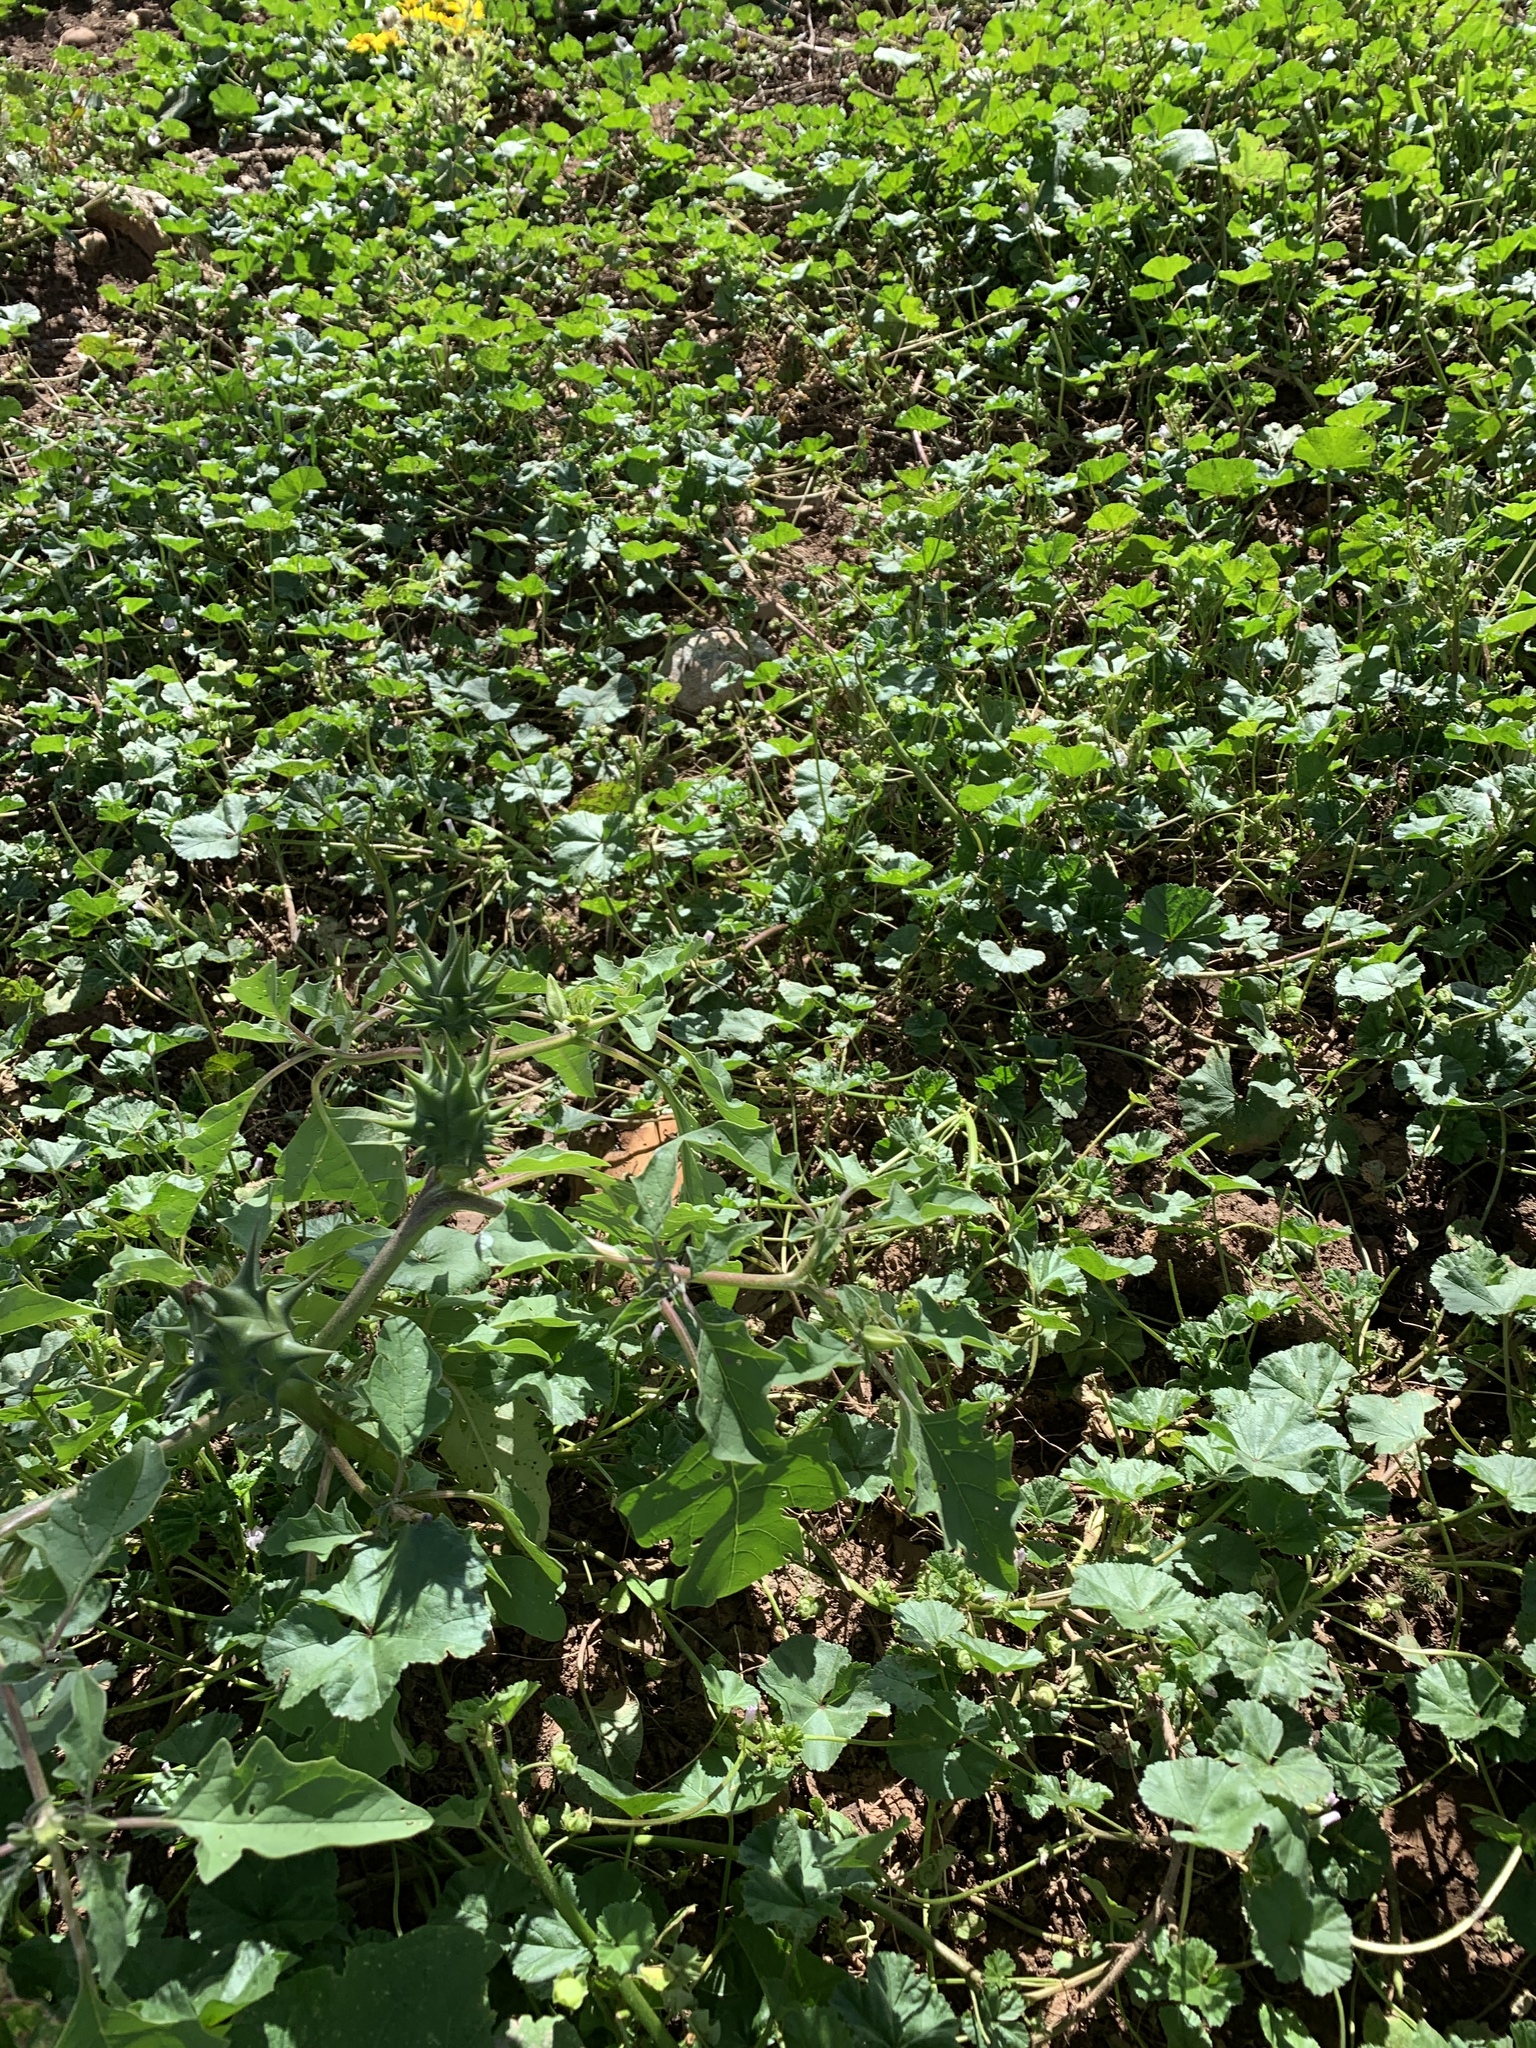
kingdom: Plantae
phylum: Tracheophyta
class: Magnoliopsida
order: Solanales
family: Solanaceae
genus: Datura
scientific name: Datura wrightii
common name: Sacred thorn-apple
